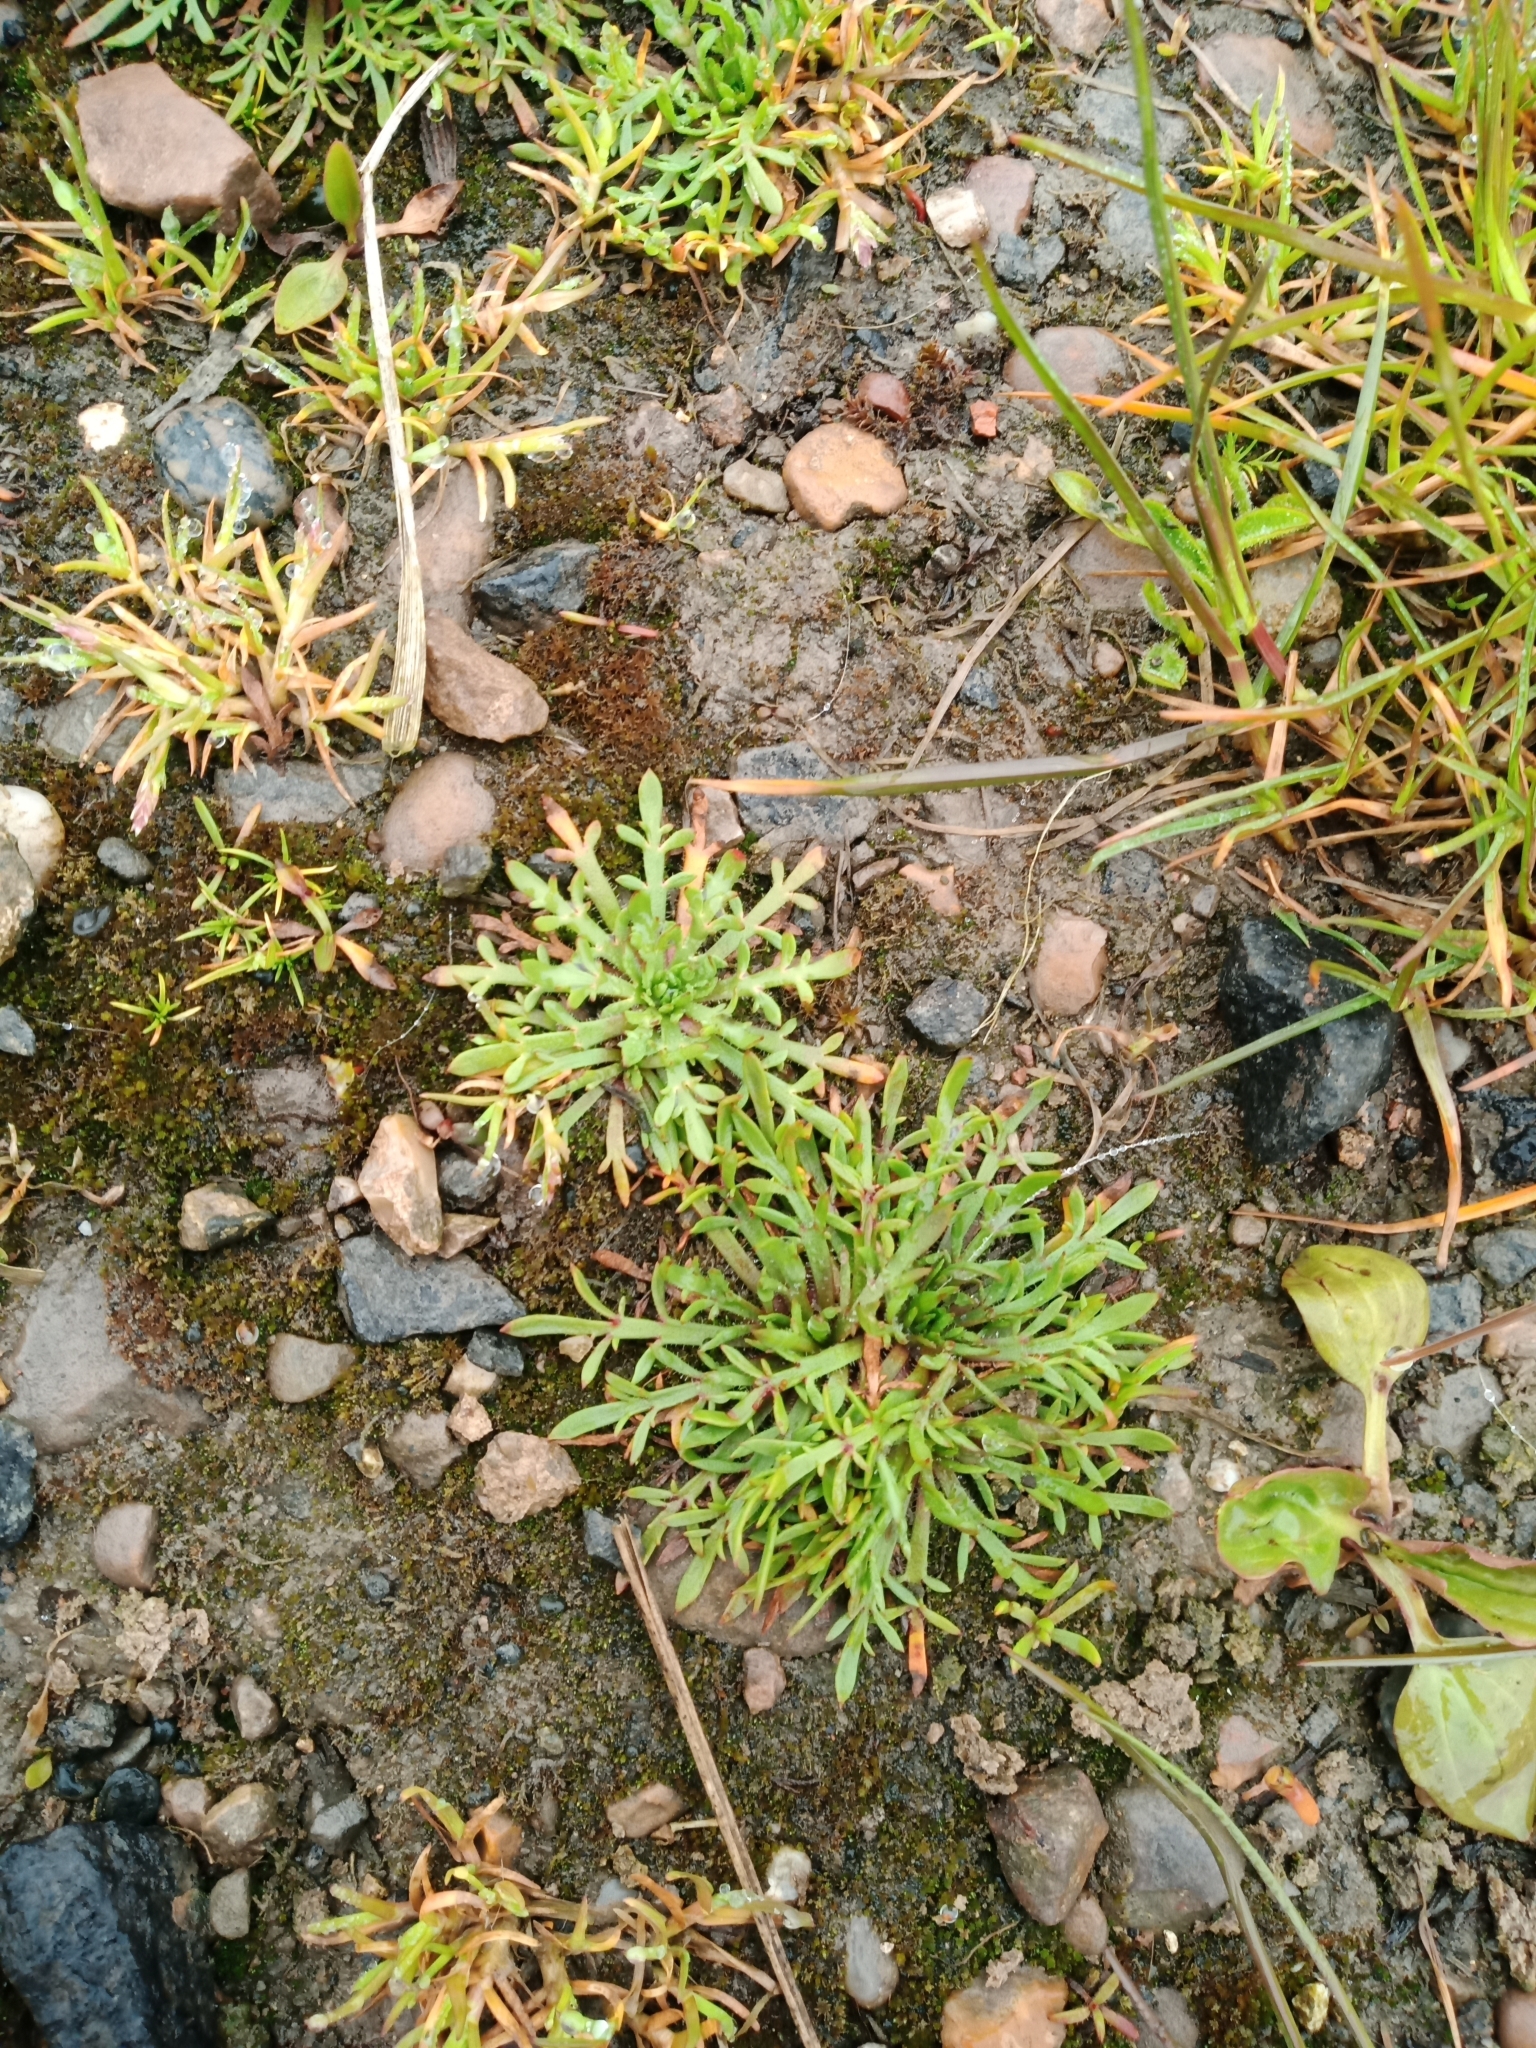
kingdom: Plantae
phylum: Tracheophyta
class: Magnoliopsida
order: Lamiales
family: Plantaginaceae
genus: Plantago
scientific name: Plantago coronopus
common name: Buck's-horn plantain
